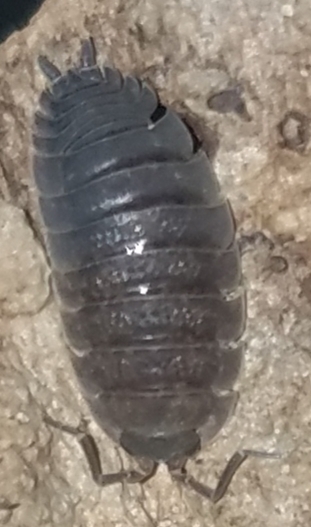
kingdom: Animalia
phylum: Arthropoda
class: Malacostraca
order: Isopoda
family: Porcellionidae
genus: Porcellio
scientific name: Porcellio scaber
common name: Common rough woodlouse
